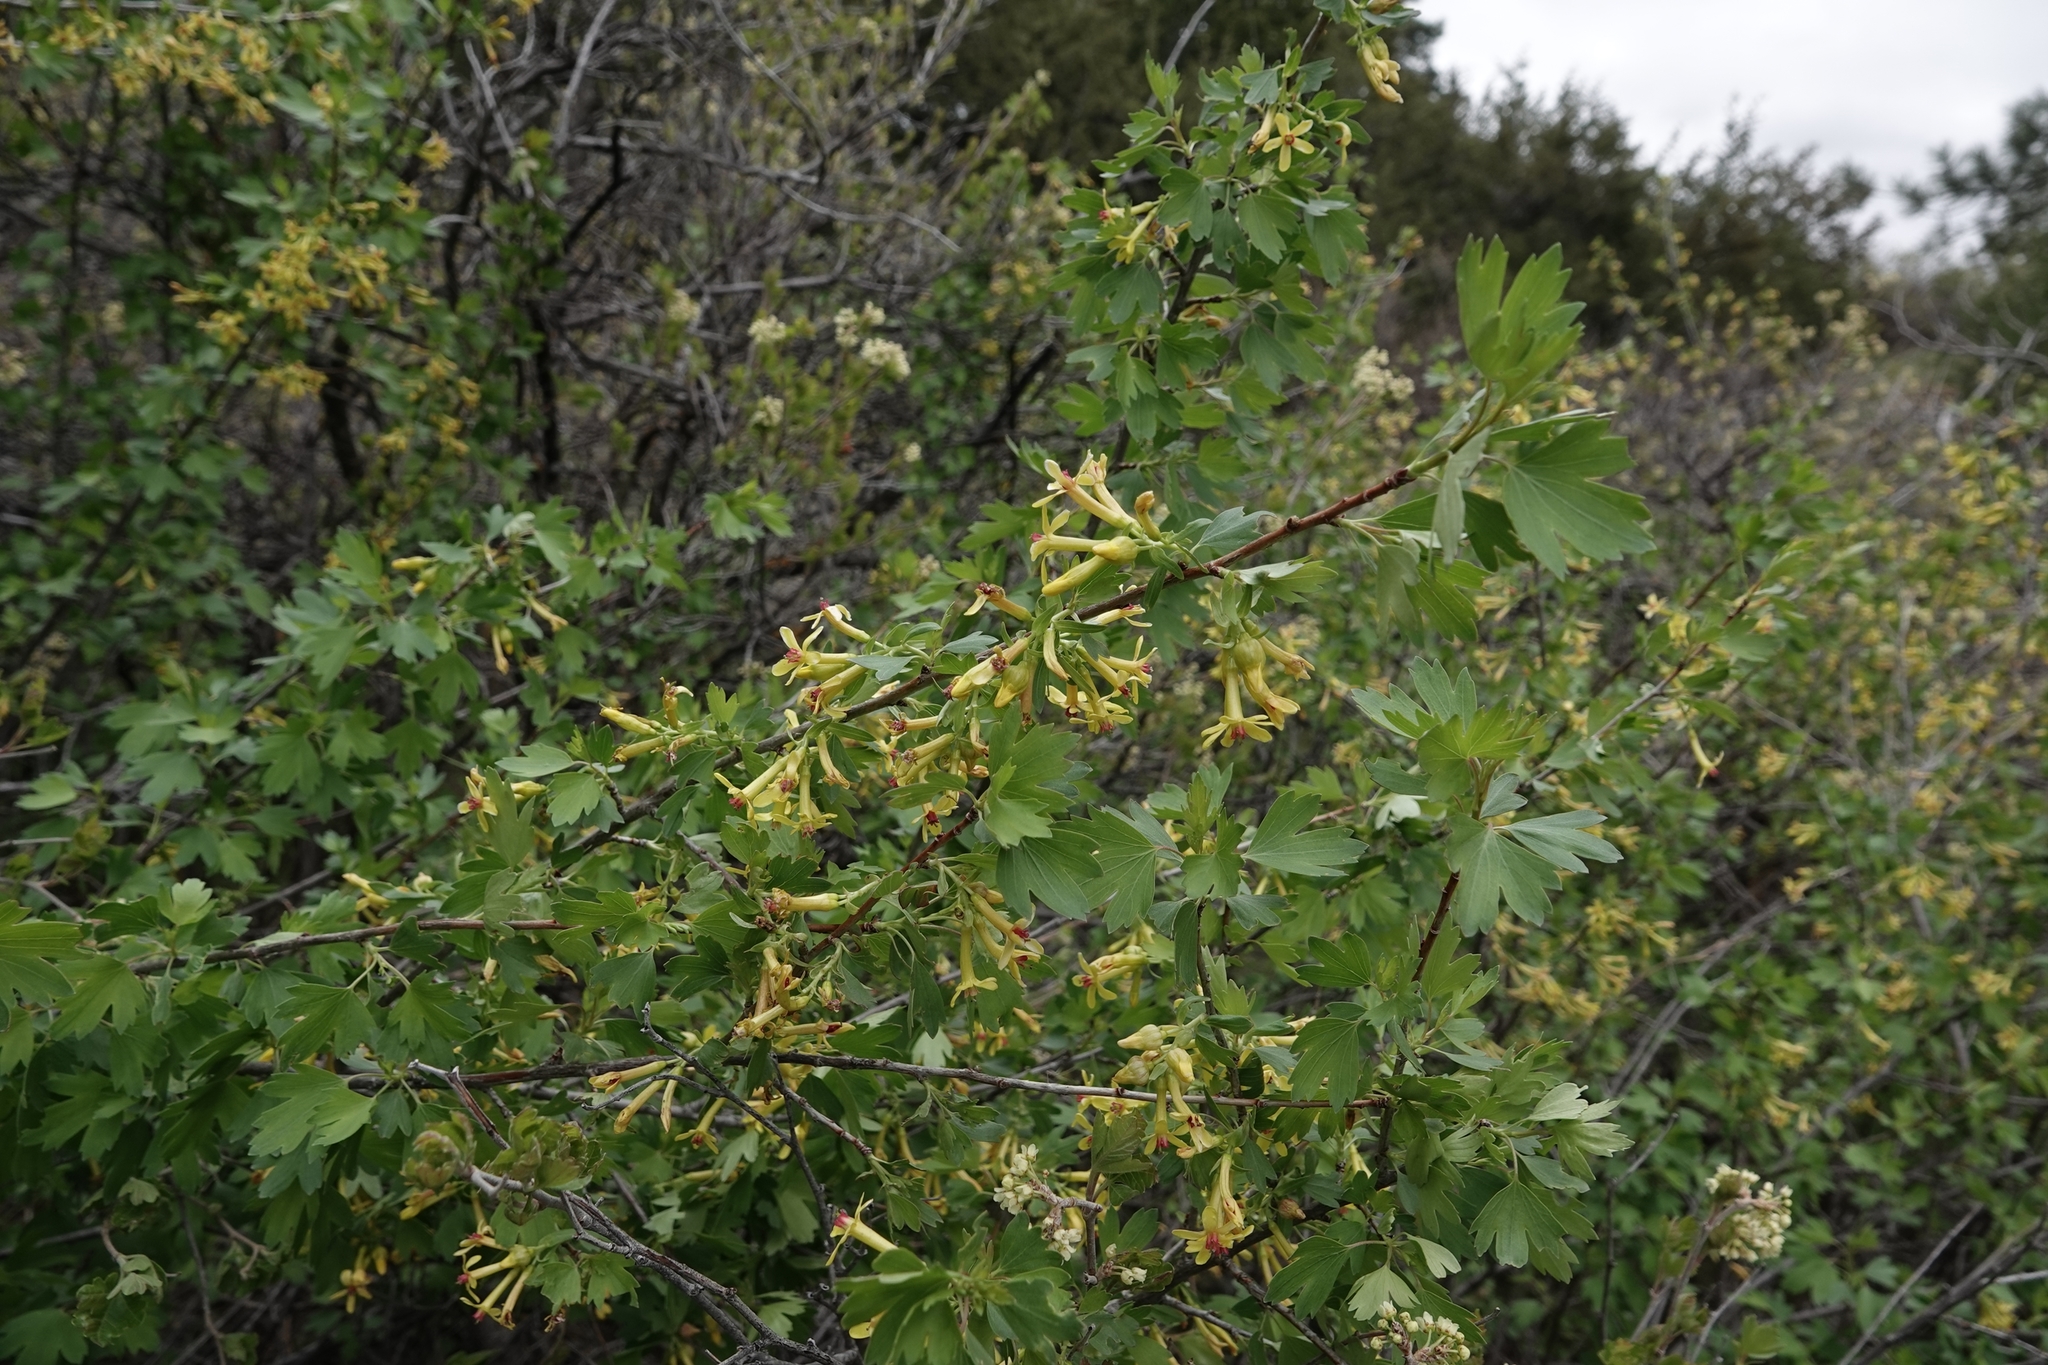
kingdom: Plantae
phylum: Tracheophyta
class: Magnoliopsida
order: Saxifragales
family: Grossulariaceae
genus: Ribes
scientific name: Ribes aureum
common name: Golden currant
